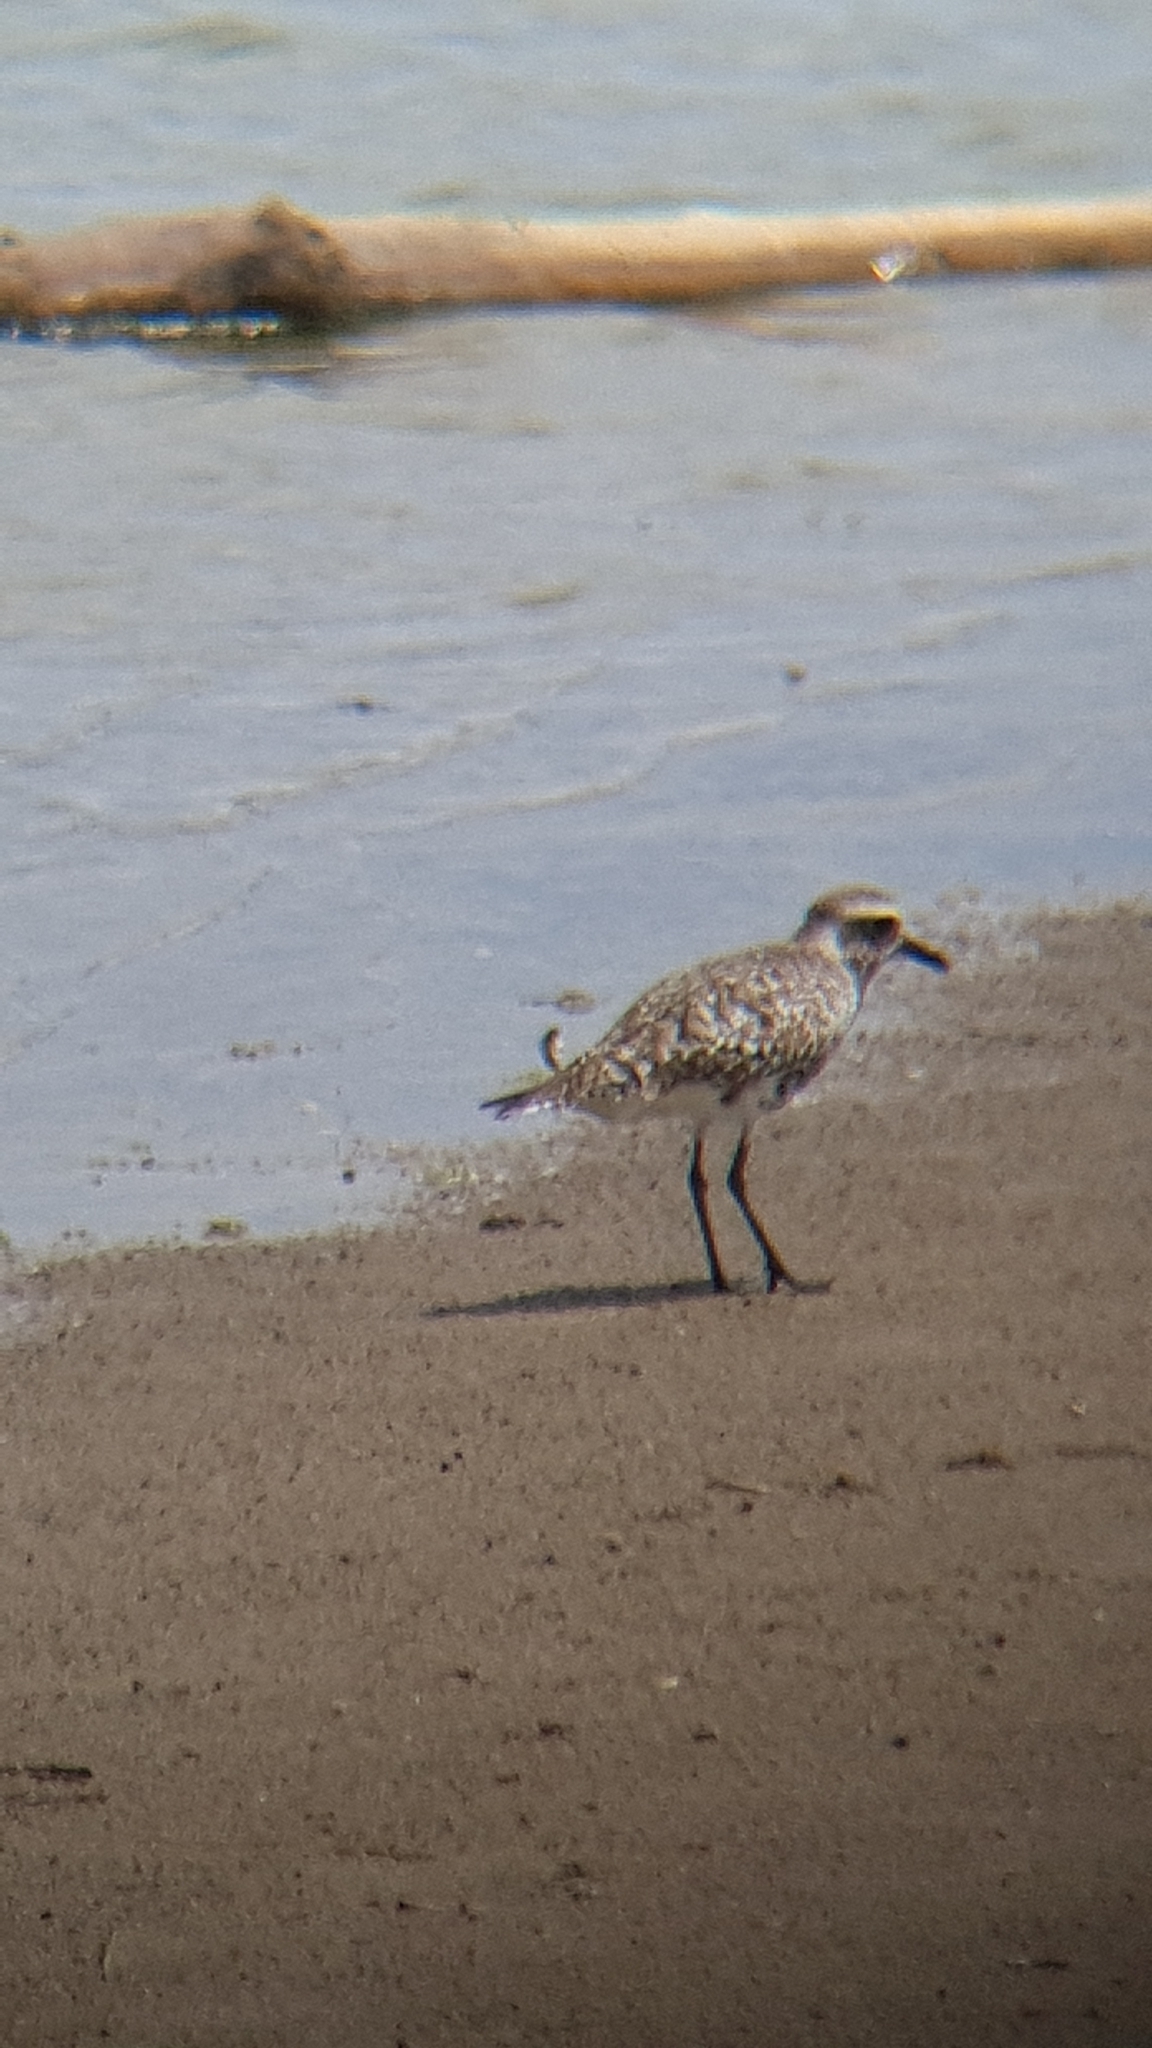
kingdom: Animalia
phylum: Chordata
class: Aves
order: Charadriiformes
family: Charadriidae
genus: Pluvialis
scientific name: Pluvialis squatarola
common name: Grey plover
